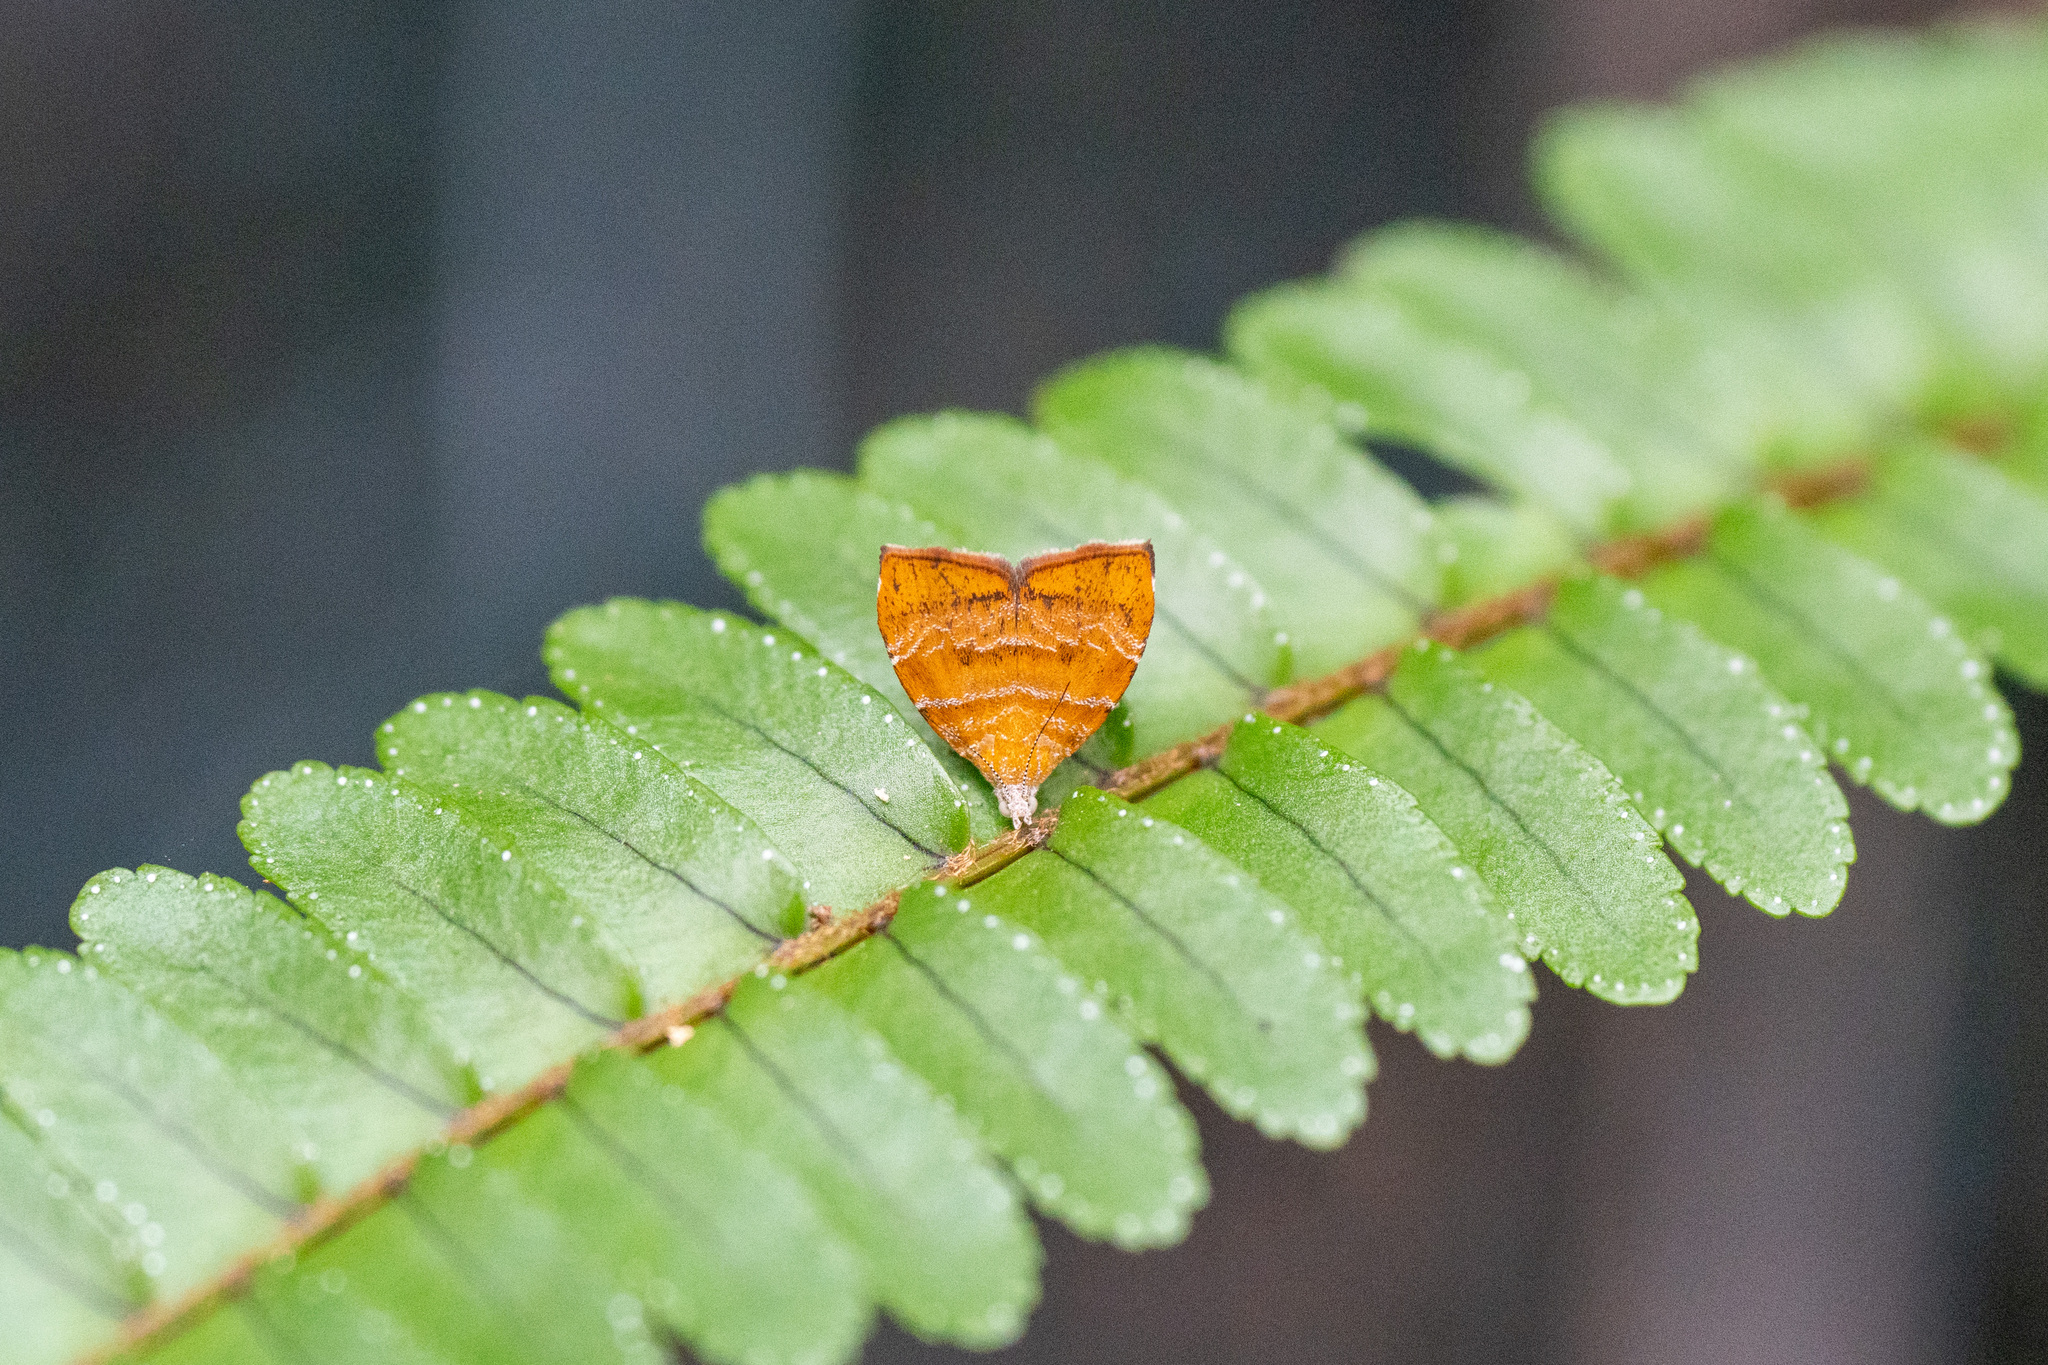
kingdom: Animalia
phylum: Arthropoda
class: Insecta
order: Lepidoptera
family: Choreutidae
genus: Anthophila
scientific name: Anthophila achyrodes
